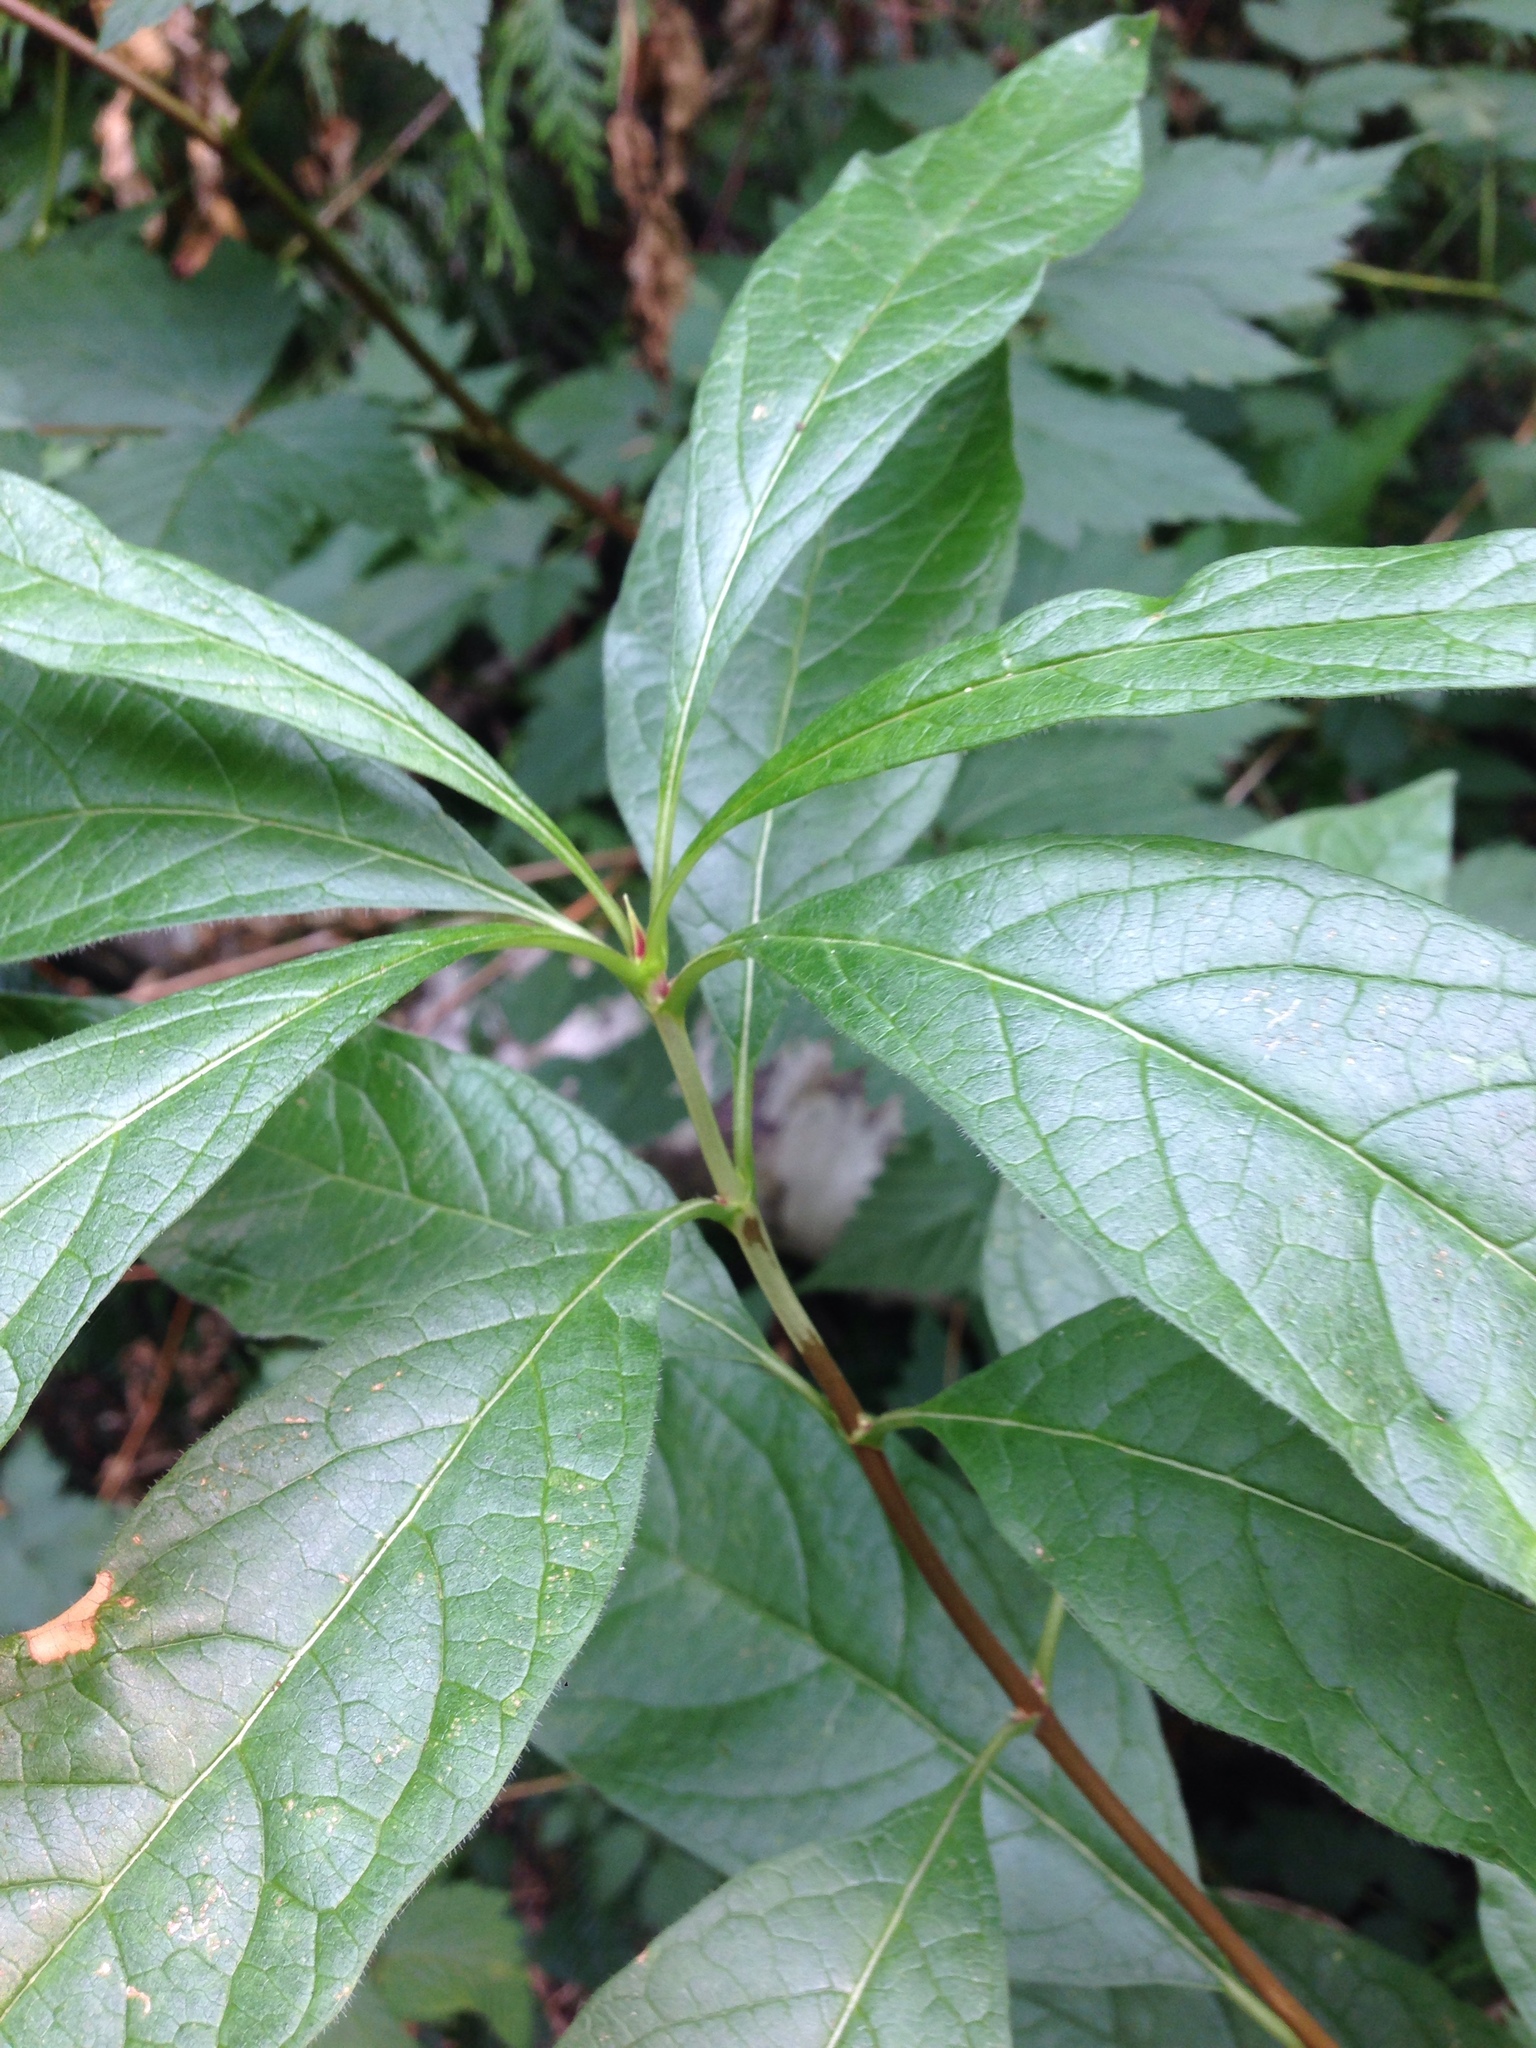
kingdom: Plantae
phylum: Tracheophyta
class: Magnoliopsida
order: Dipsacales
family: Caprifoliaceae
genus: Lonicera
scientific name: Lonicera involucrata
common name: Californian honeysuckle
